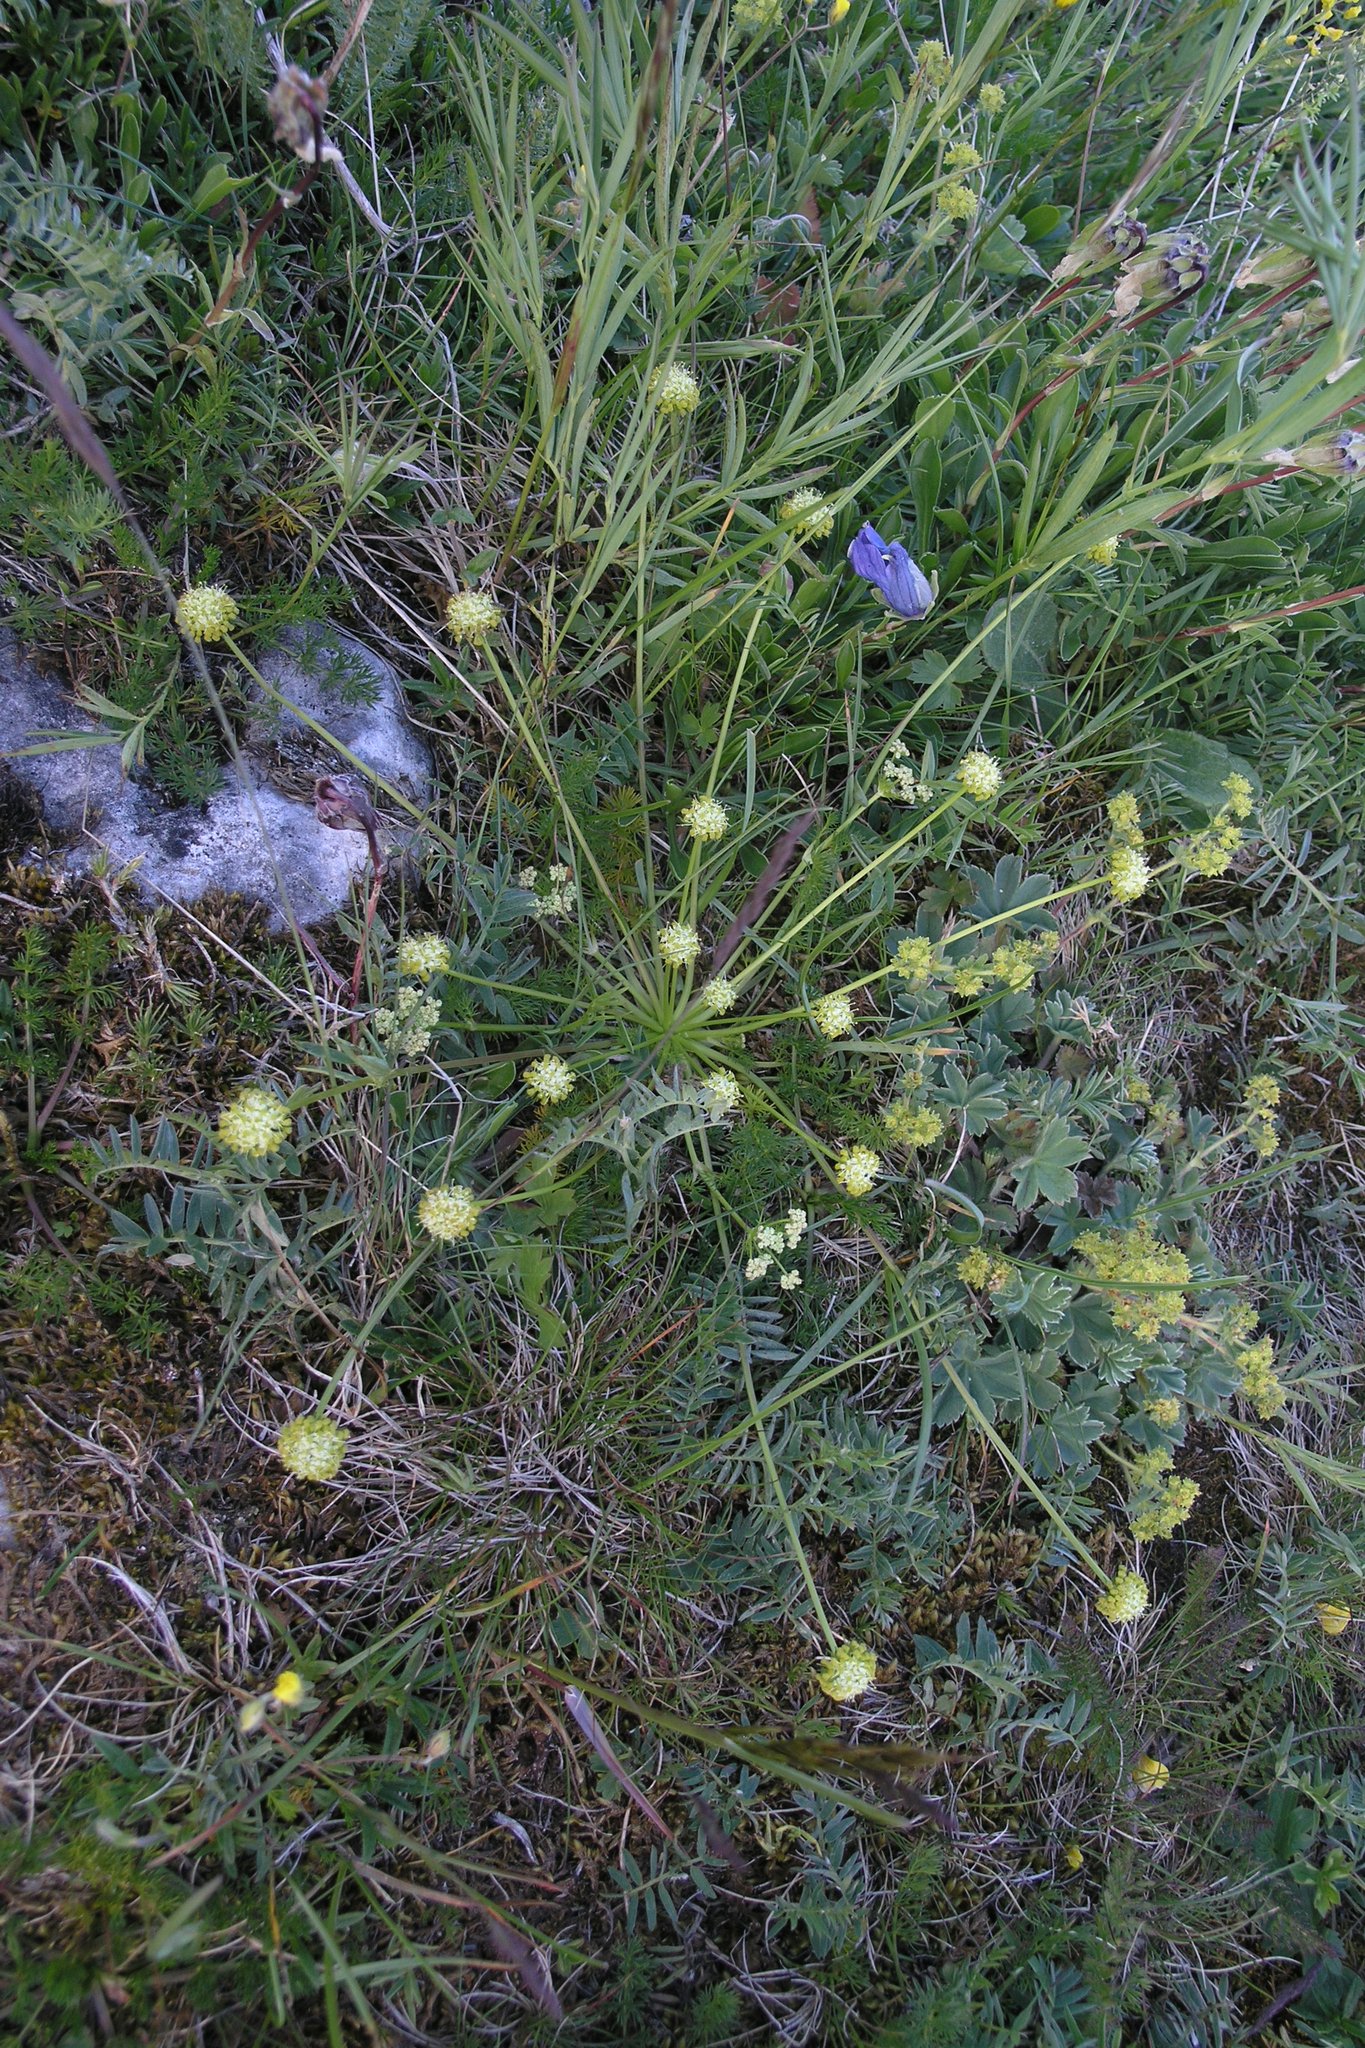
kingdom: Plantae
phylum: Tracheophyta
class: Magnoliopsida
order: Apiales
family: Apiaceae
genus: Chamaesciadium
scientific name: Chamaesciadium acaule
